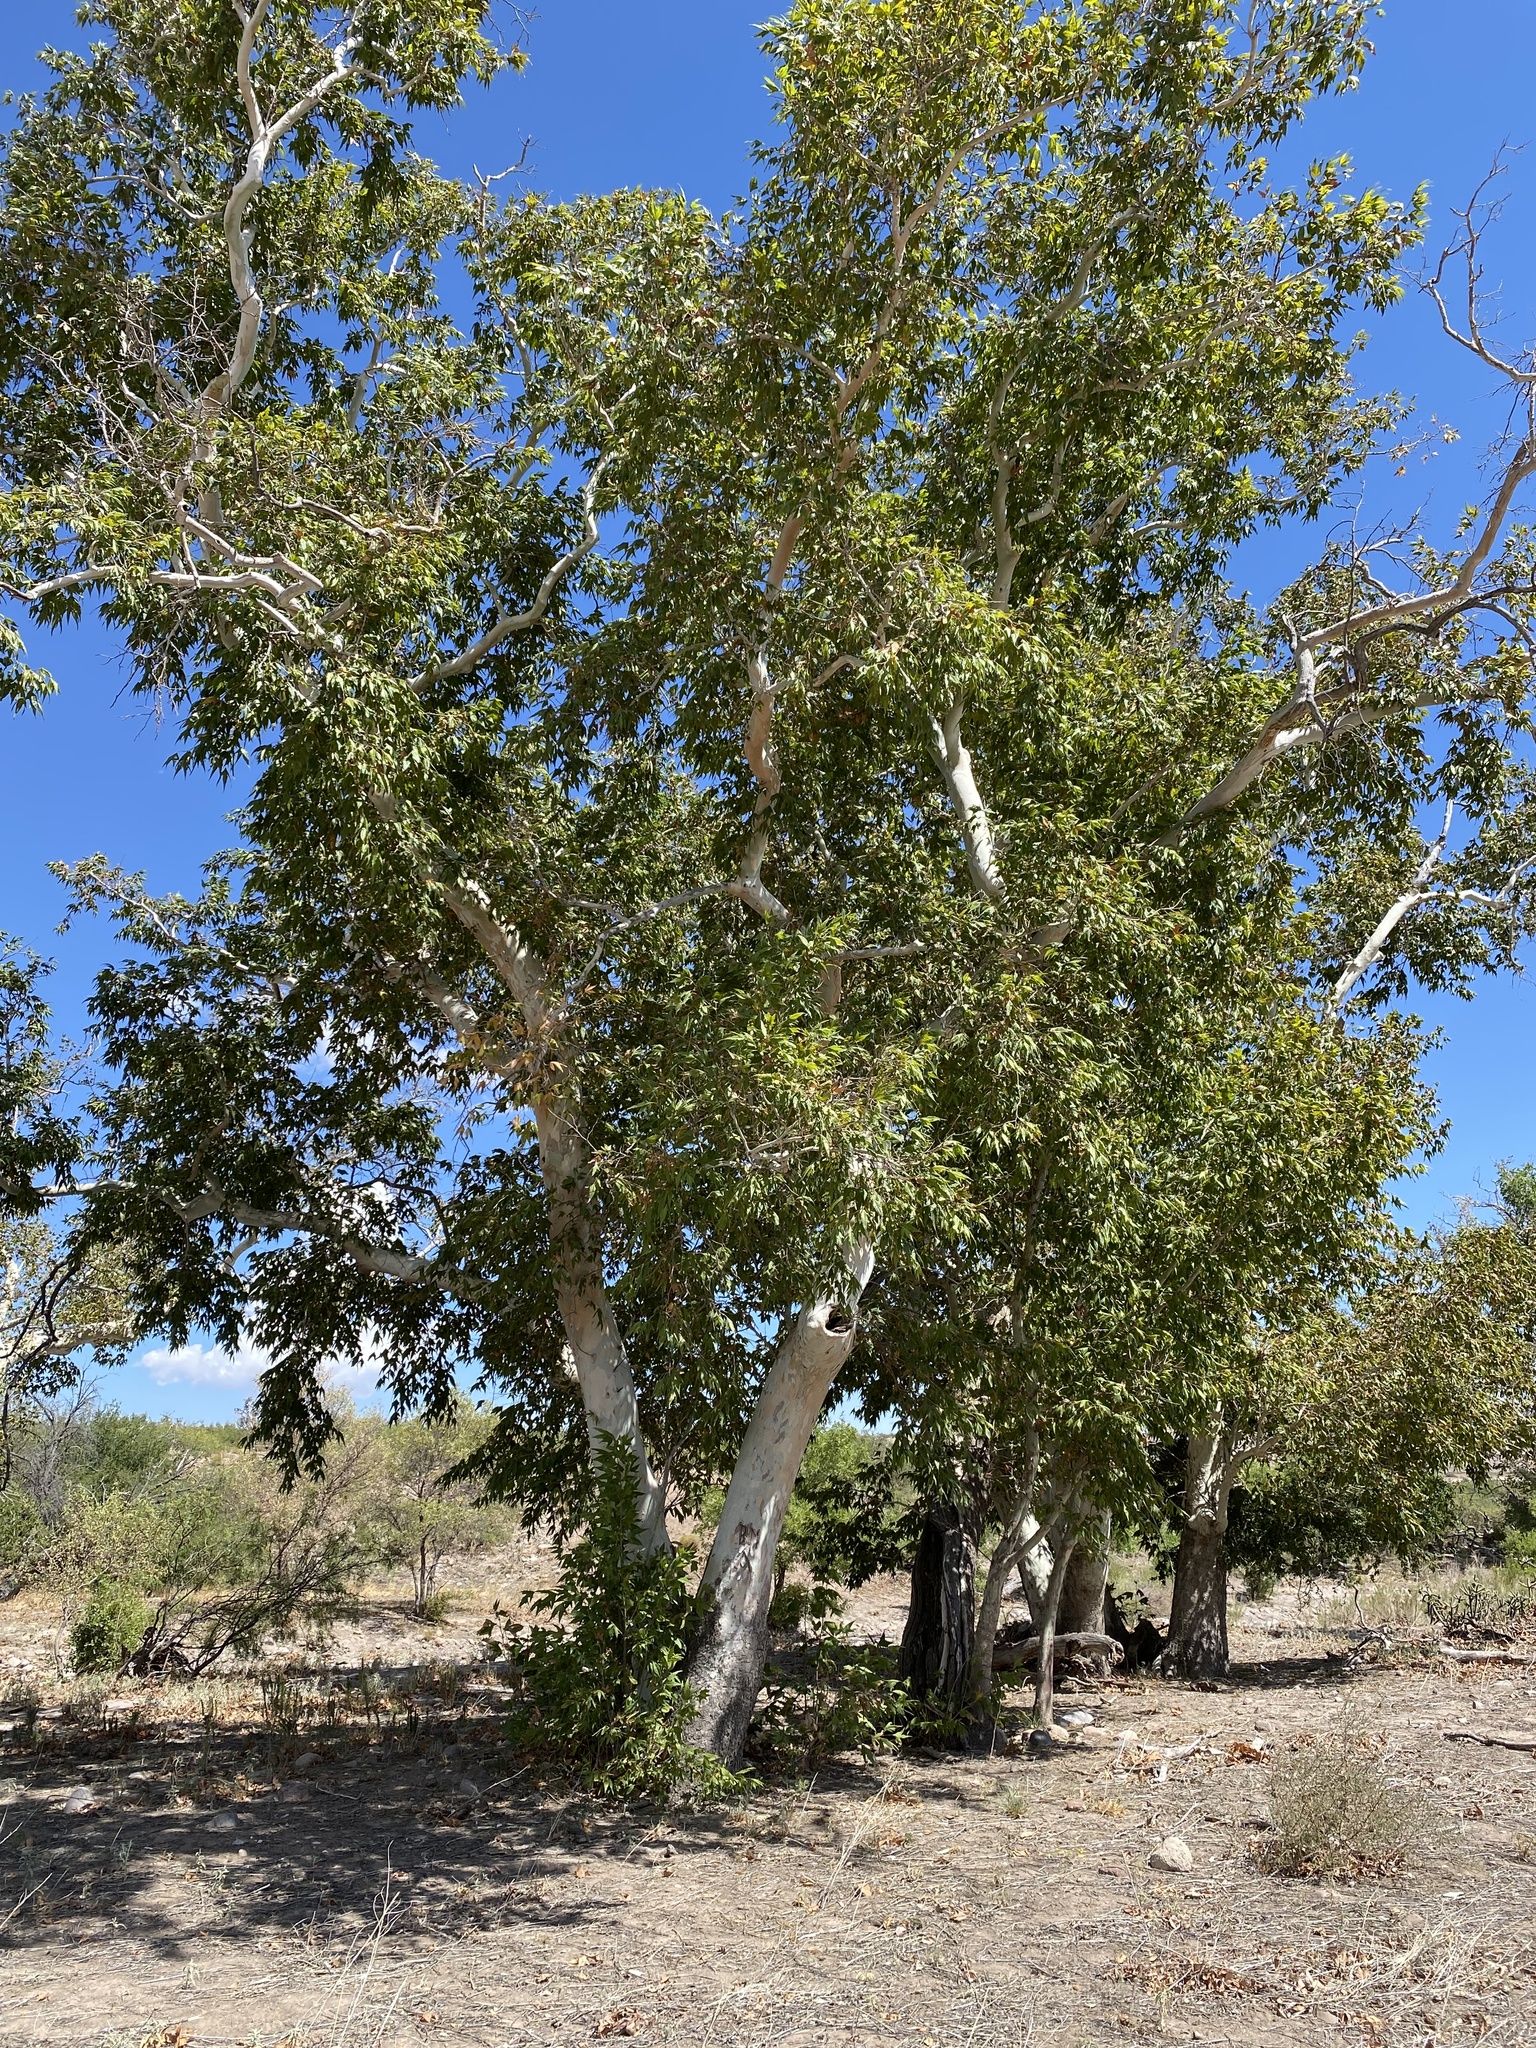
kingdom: Plantae
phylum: Tracheophyta
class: Magnoliopsida
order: Proteales
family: Platanaceae
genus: Platanus
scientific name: Platanus wrightii
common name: Arizona sycamore
